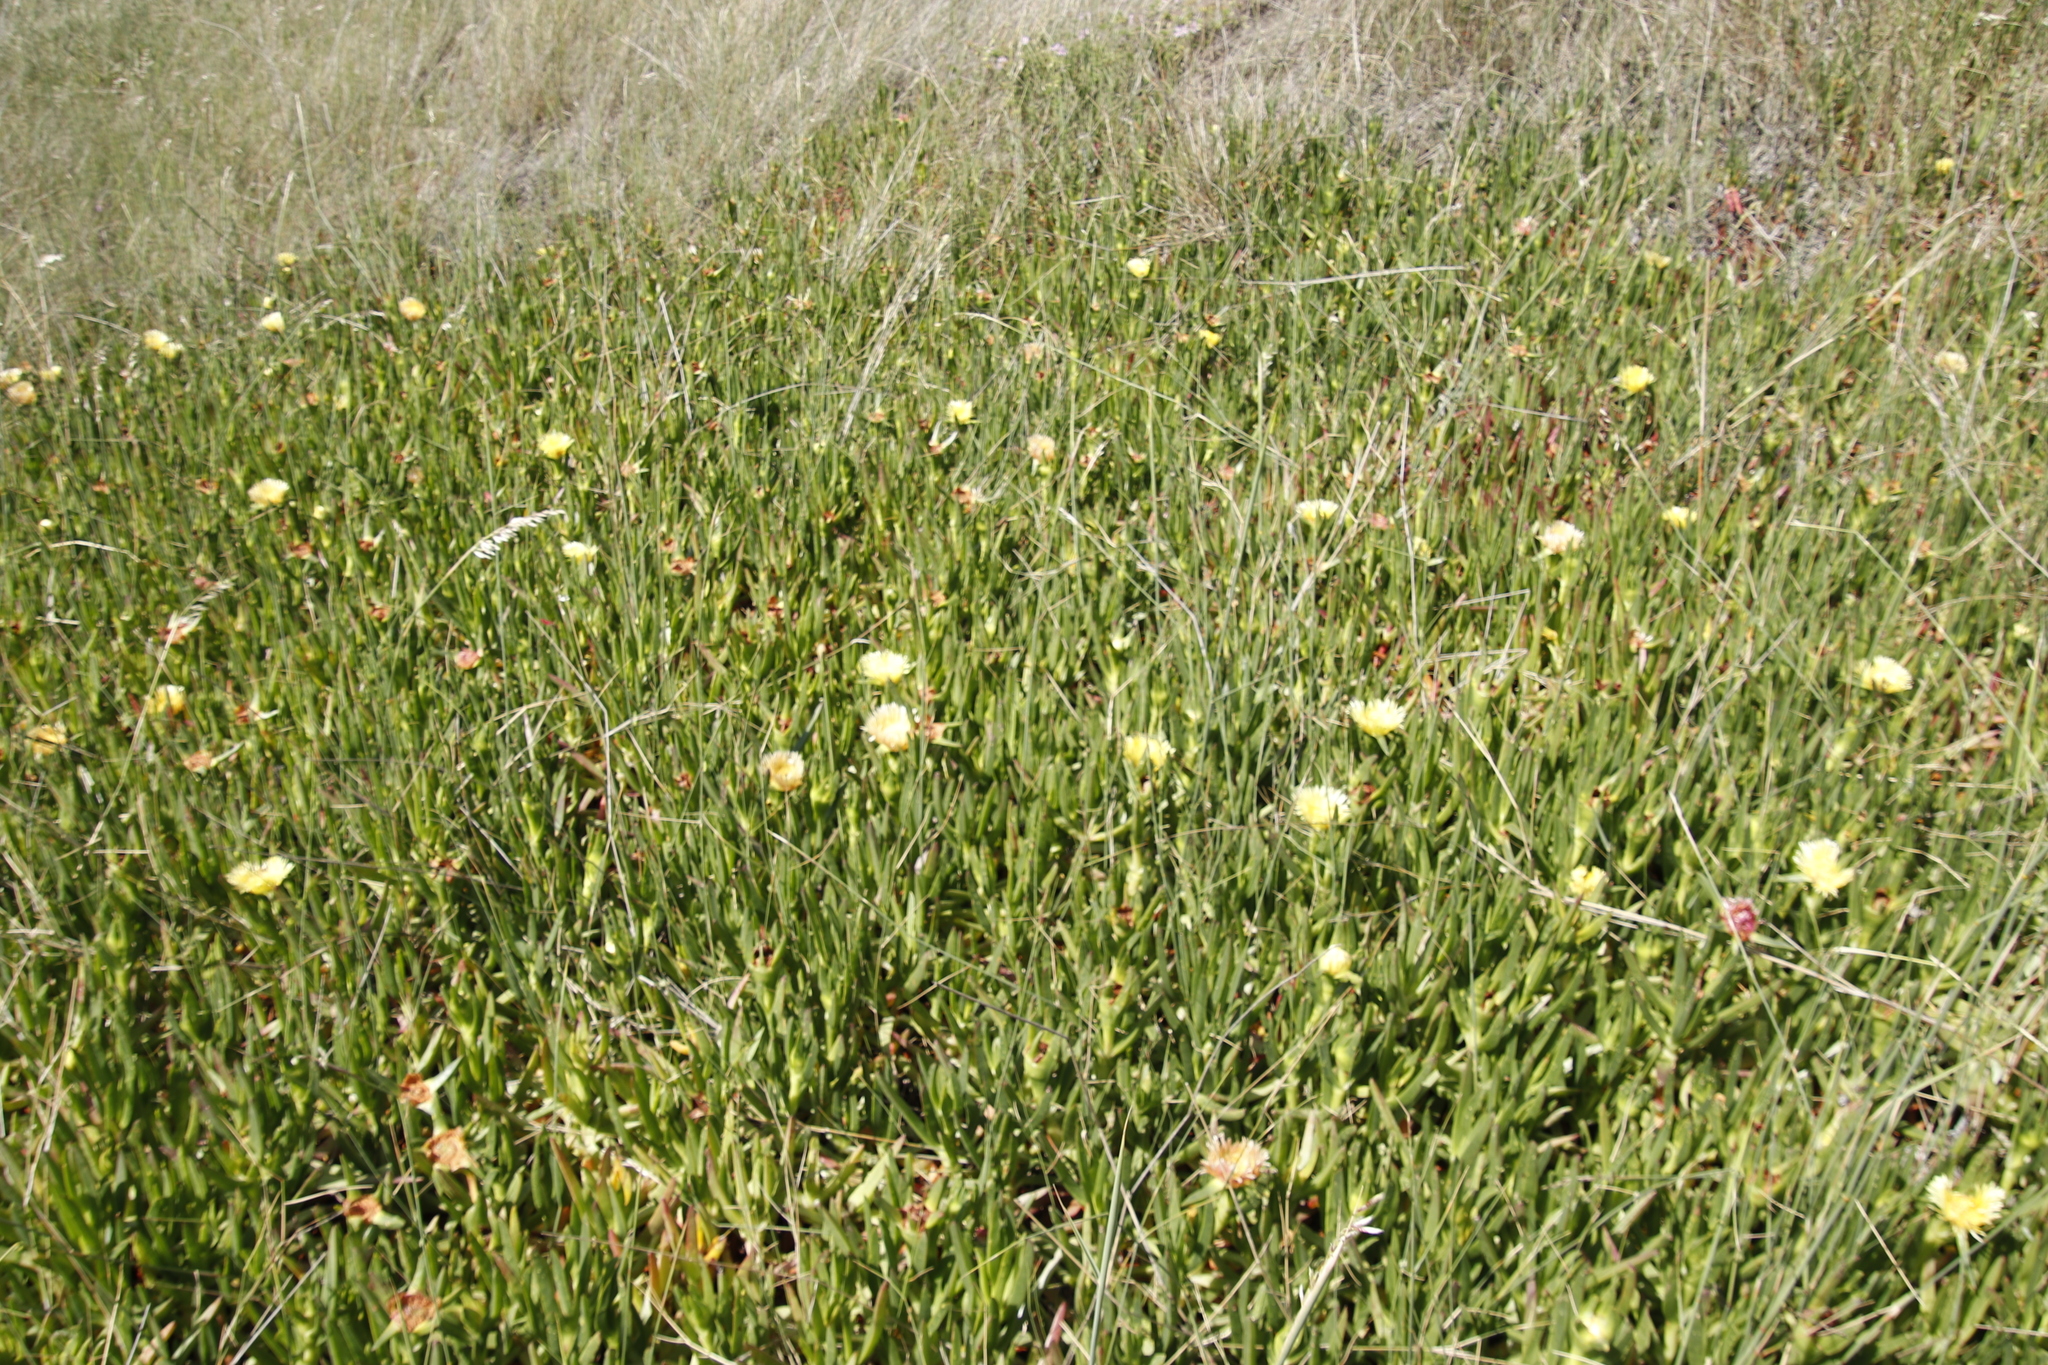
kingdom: Plantae
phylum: Tracheophyta
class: Magnoliopsida
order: Caryophyllales
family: Aizoaceae
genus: Carpobrotus
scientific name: Carpobrotus edulis
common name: Hottentot-fig
